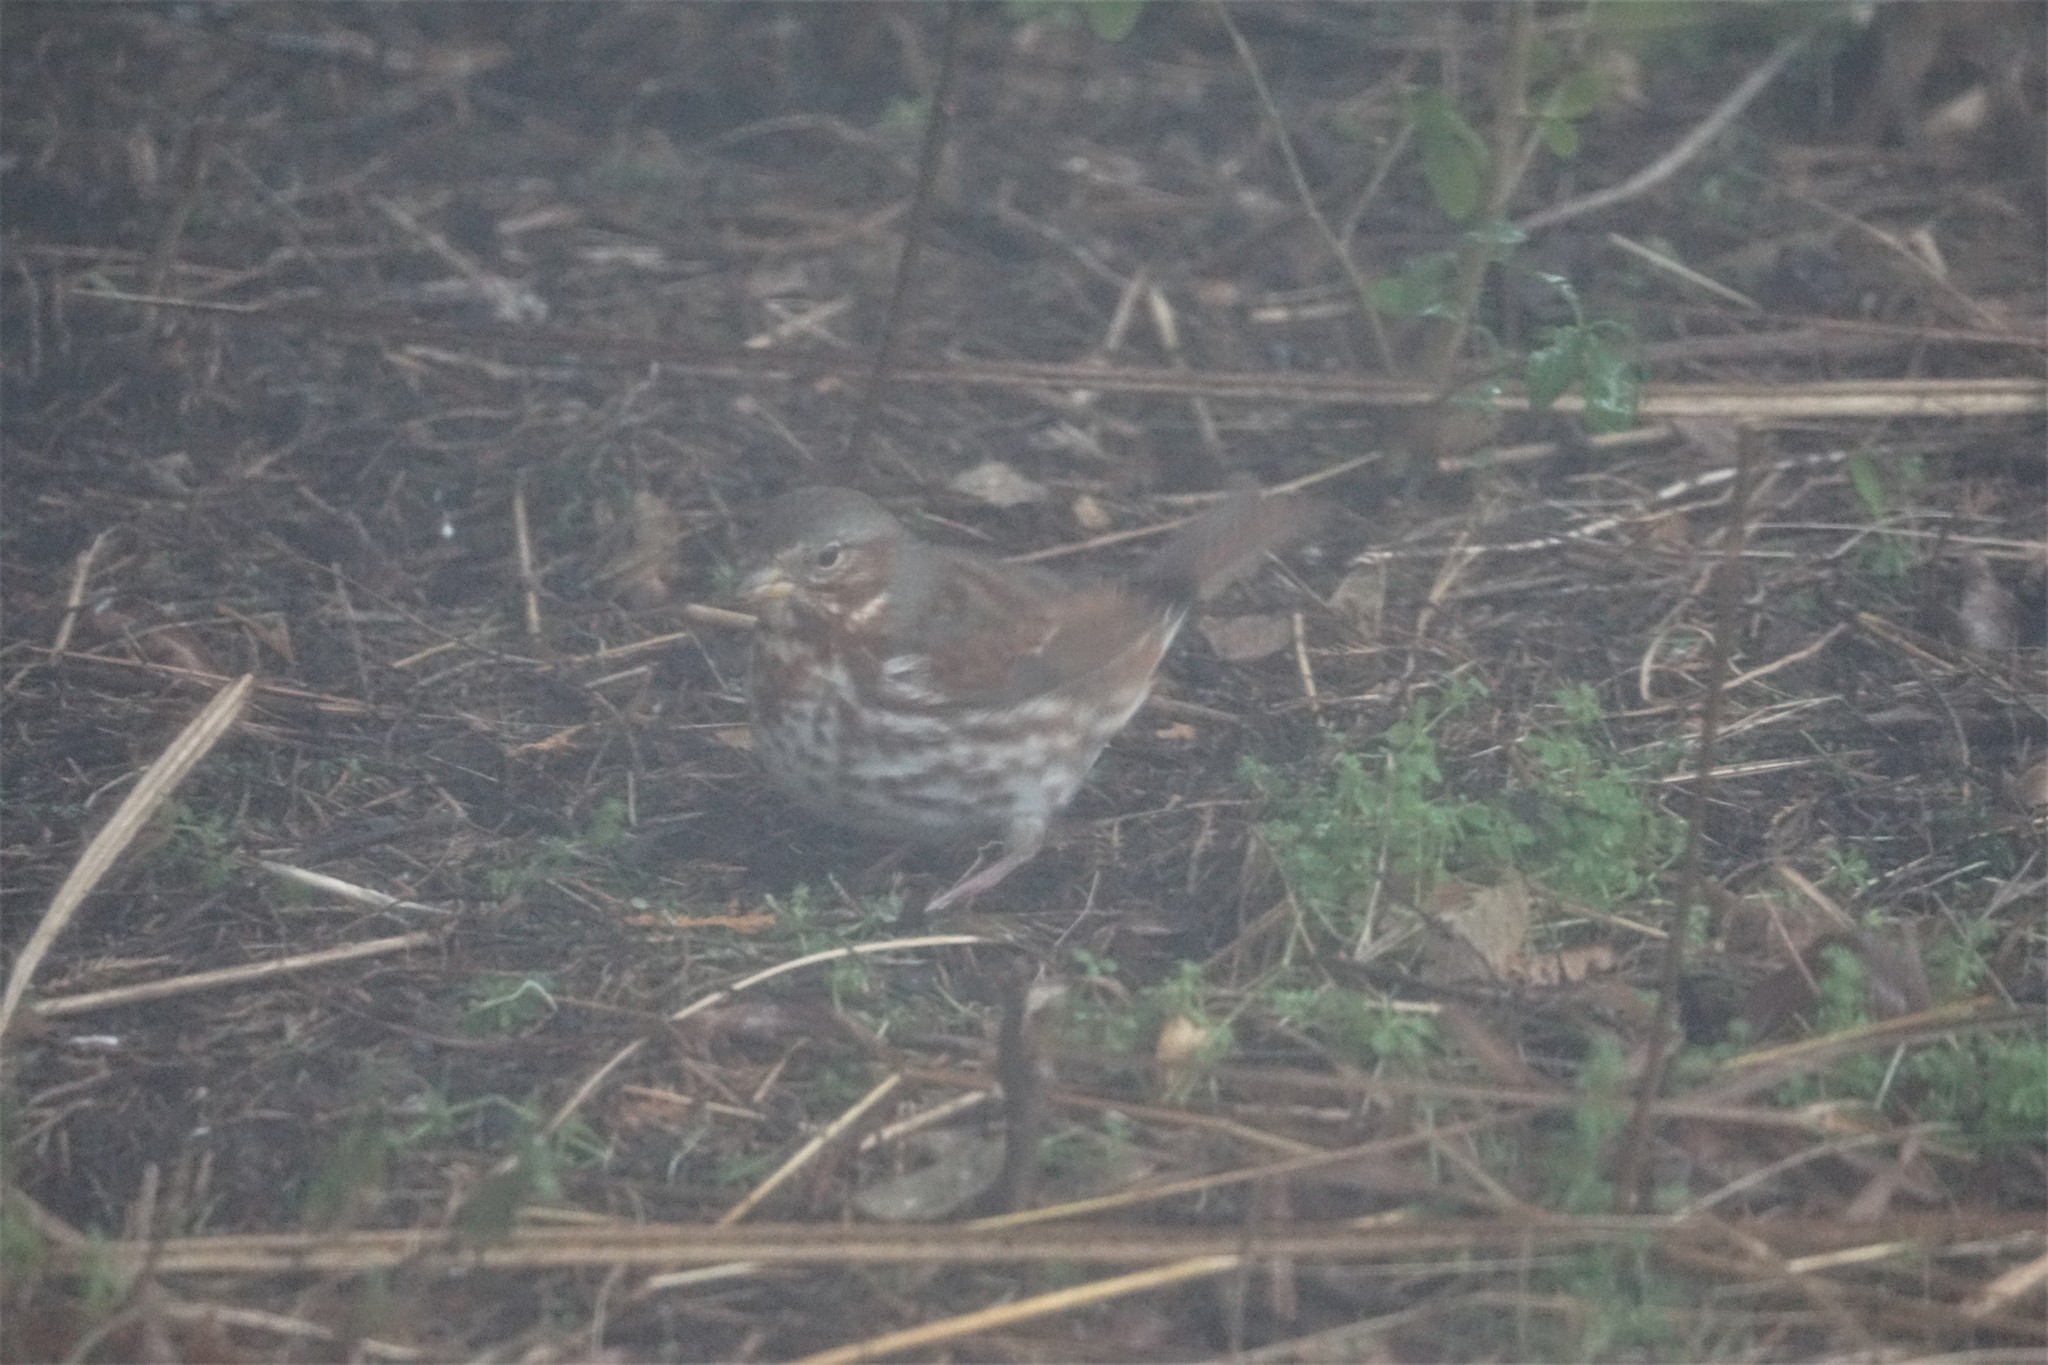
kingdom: Animalia
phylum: Chordata
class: Aves
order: Passeriformes
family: Passerellidae
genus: Passerella
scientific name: Passerella iliaca
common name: Fox sparrow
